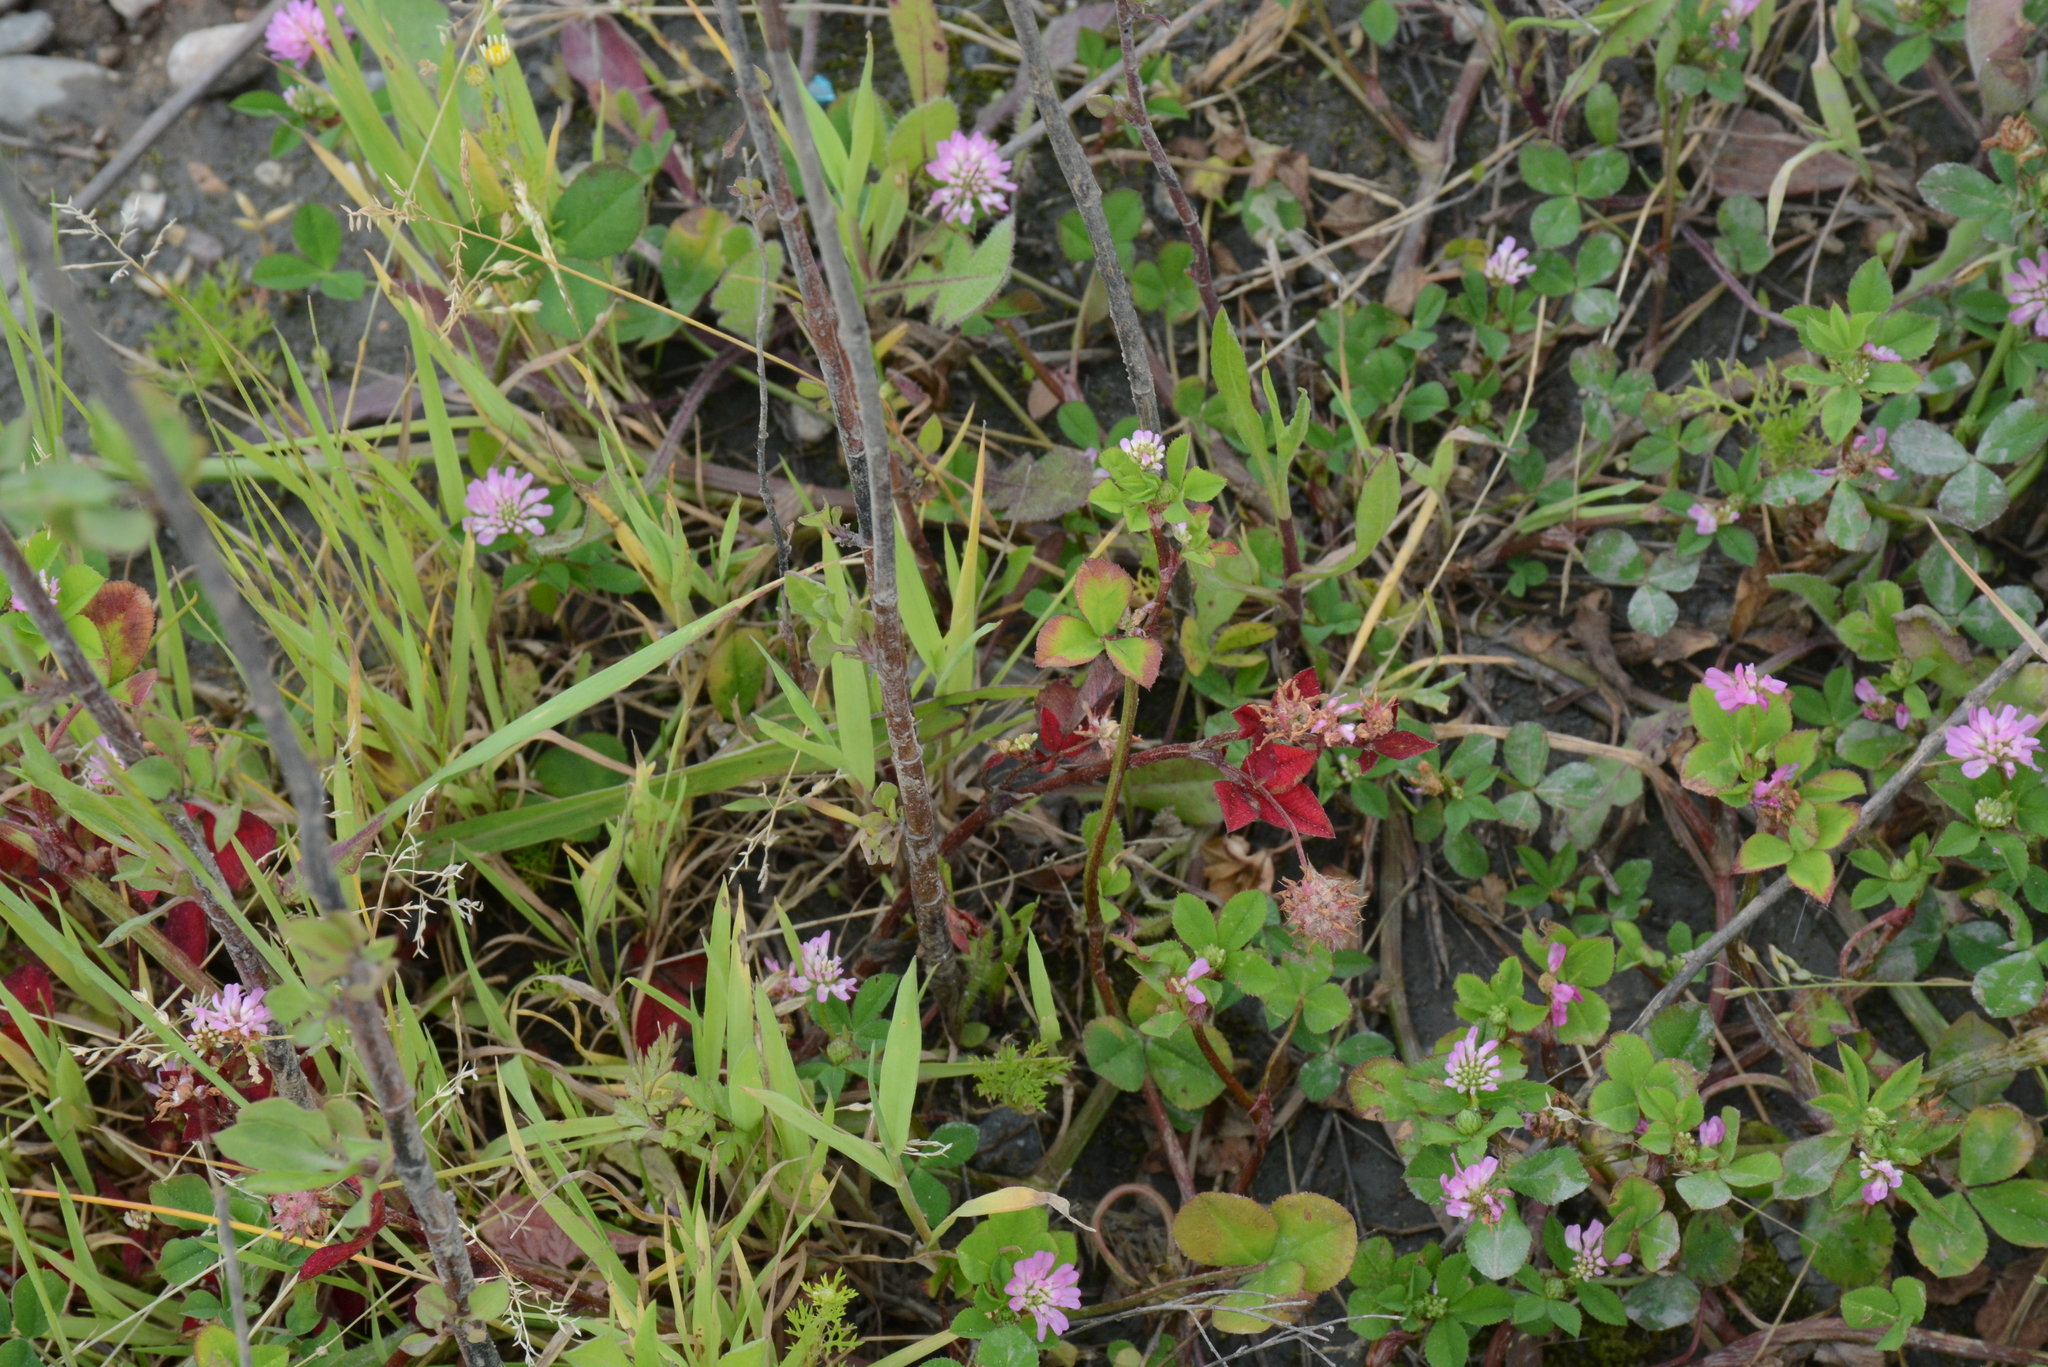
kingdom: Plantae
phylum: Tracheophyta
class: Magnoliopsida
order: Fabales
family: Fabaceae
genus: Trifolium
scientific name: Trifolium resupinatum
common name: Reversed clover
